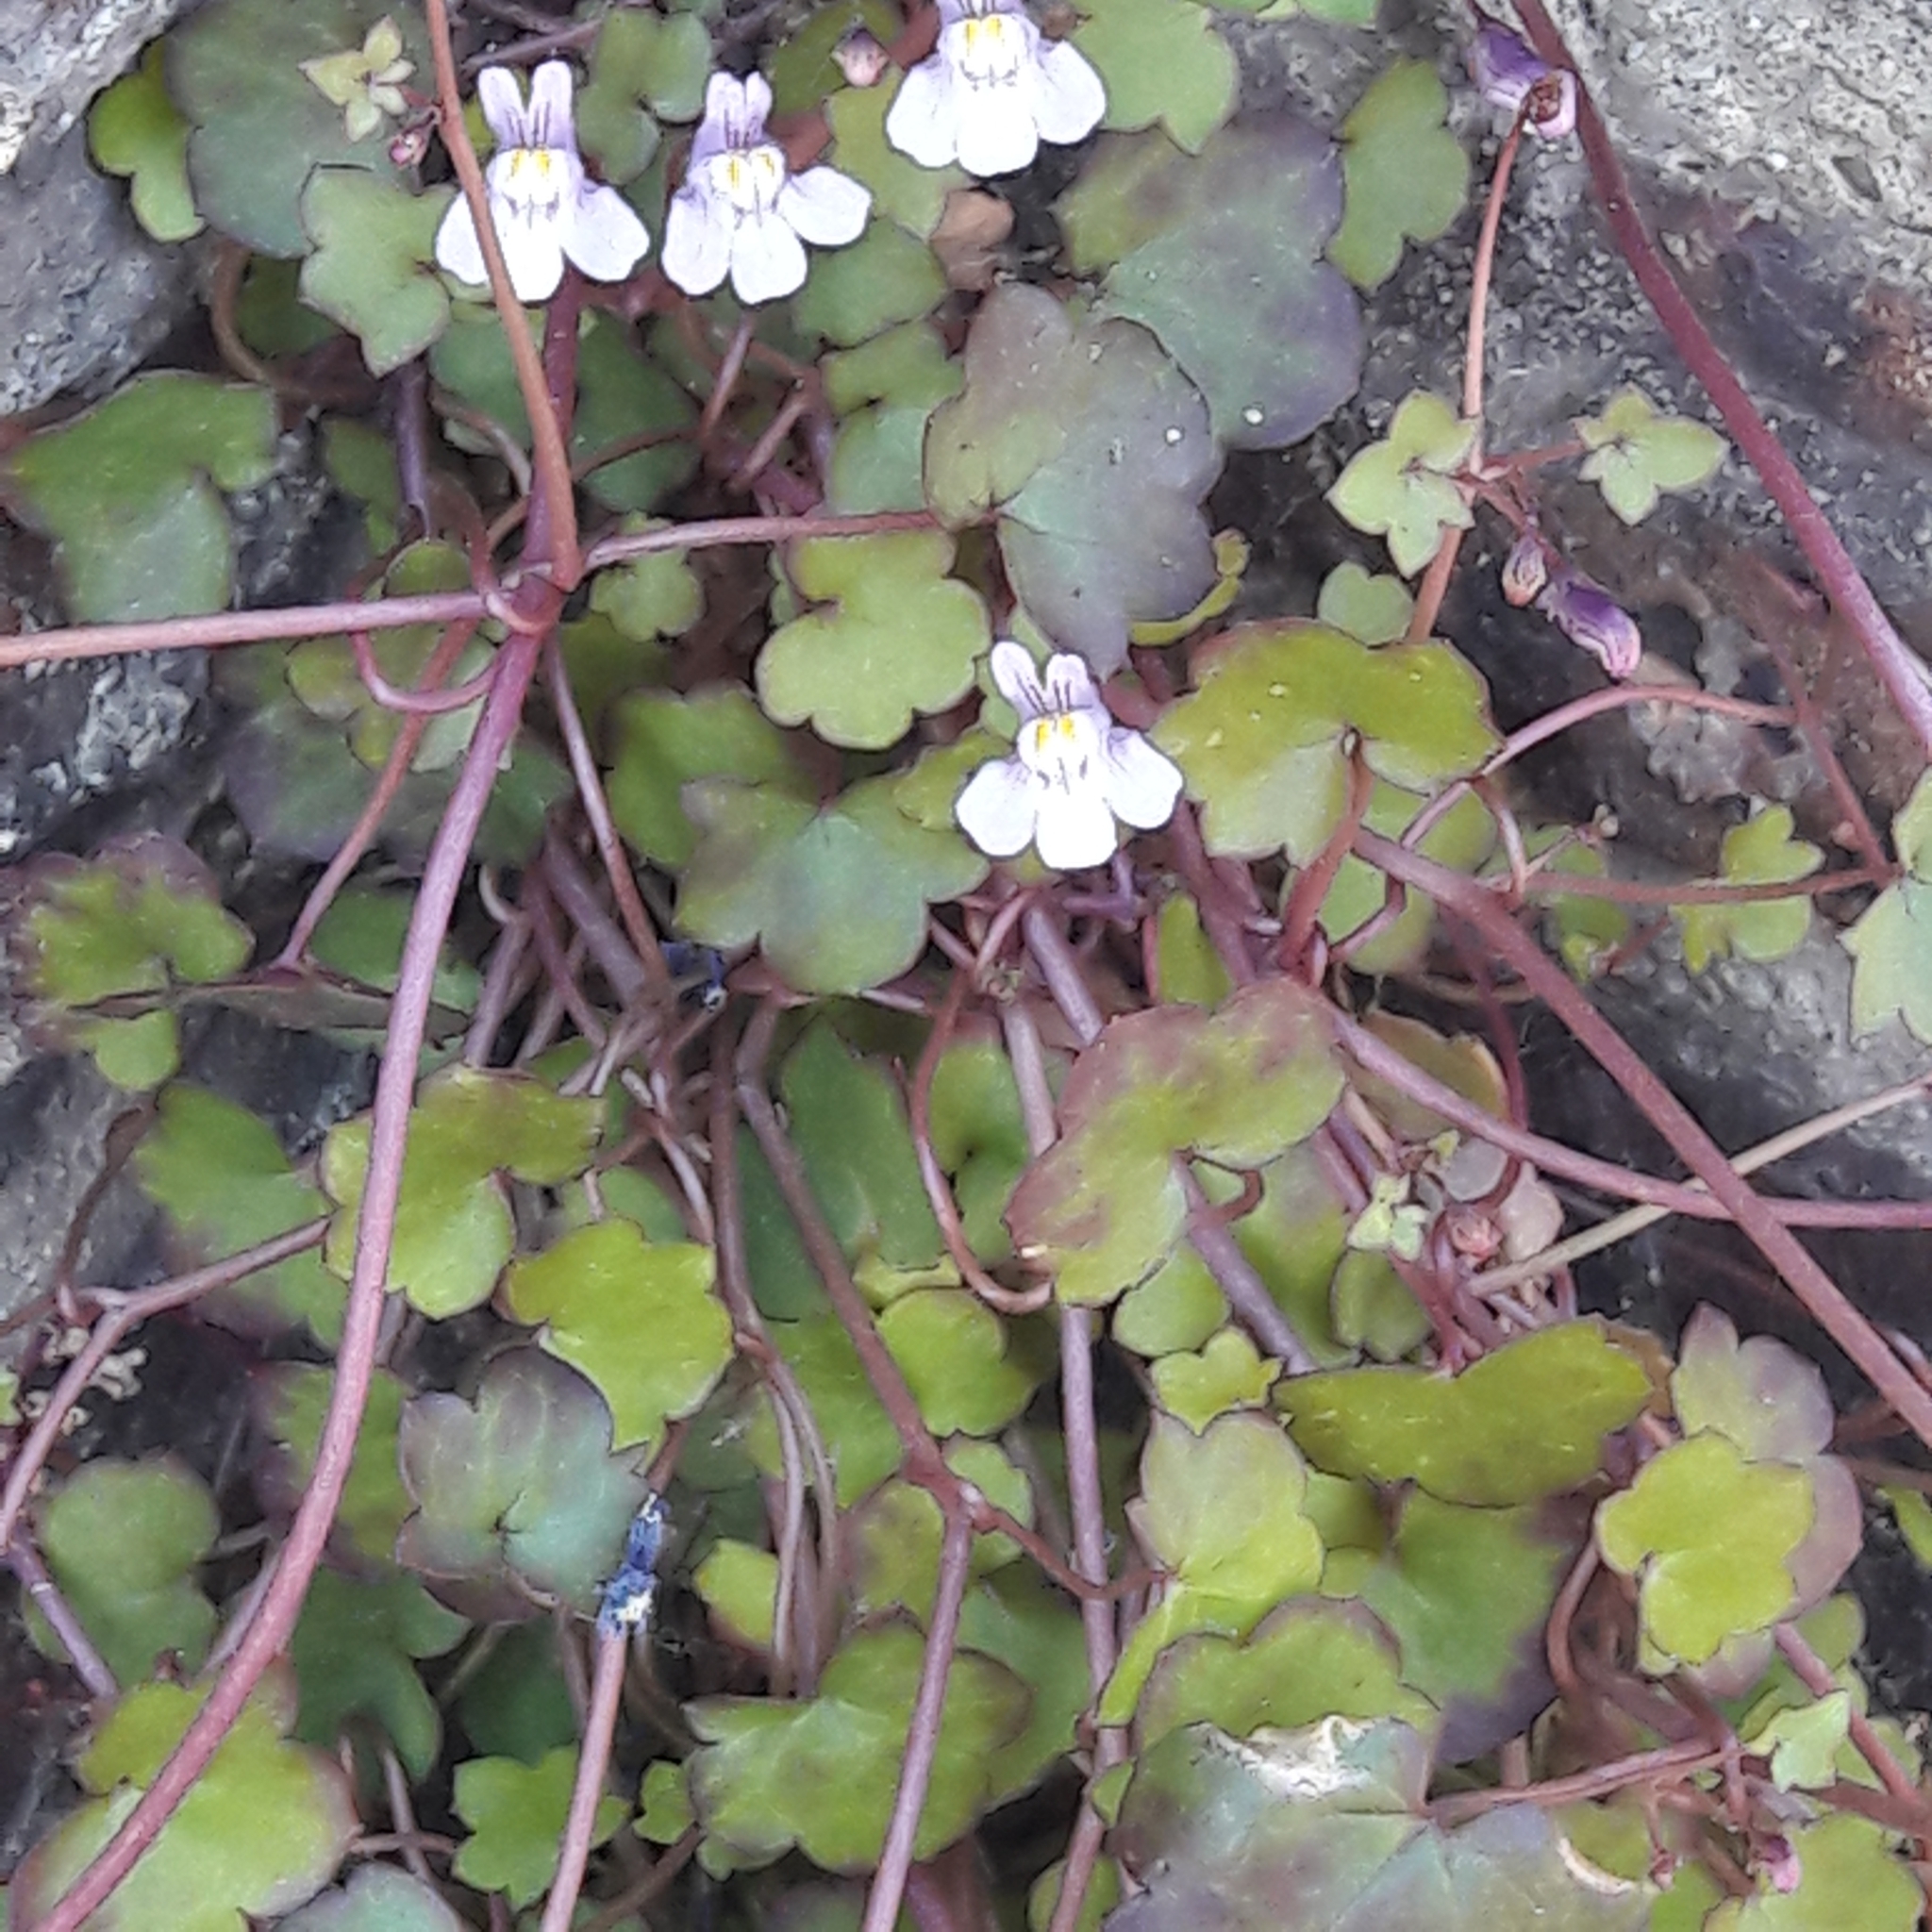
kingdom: Plantae
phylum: Tracheophyta
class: Magnoliopsida
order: Lamiales
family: Plantaginaceae
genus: Cymbalaria
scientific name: Cymbalaria muralis
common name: Ivy-leaved toadflax
